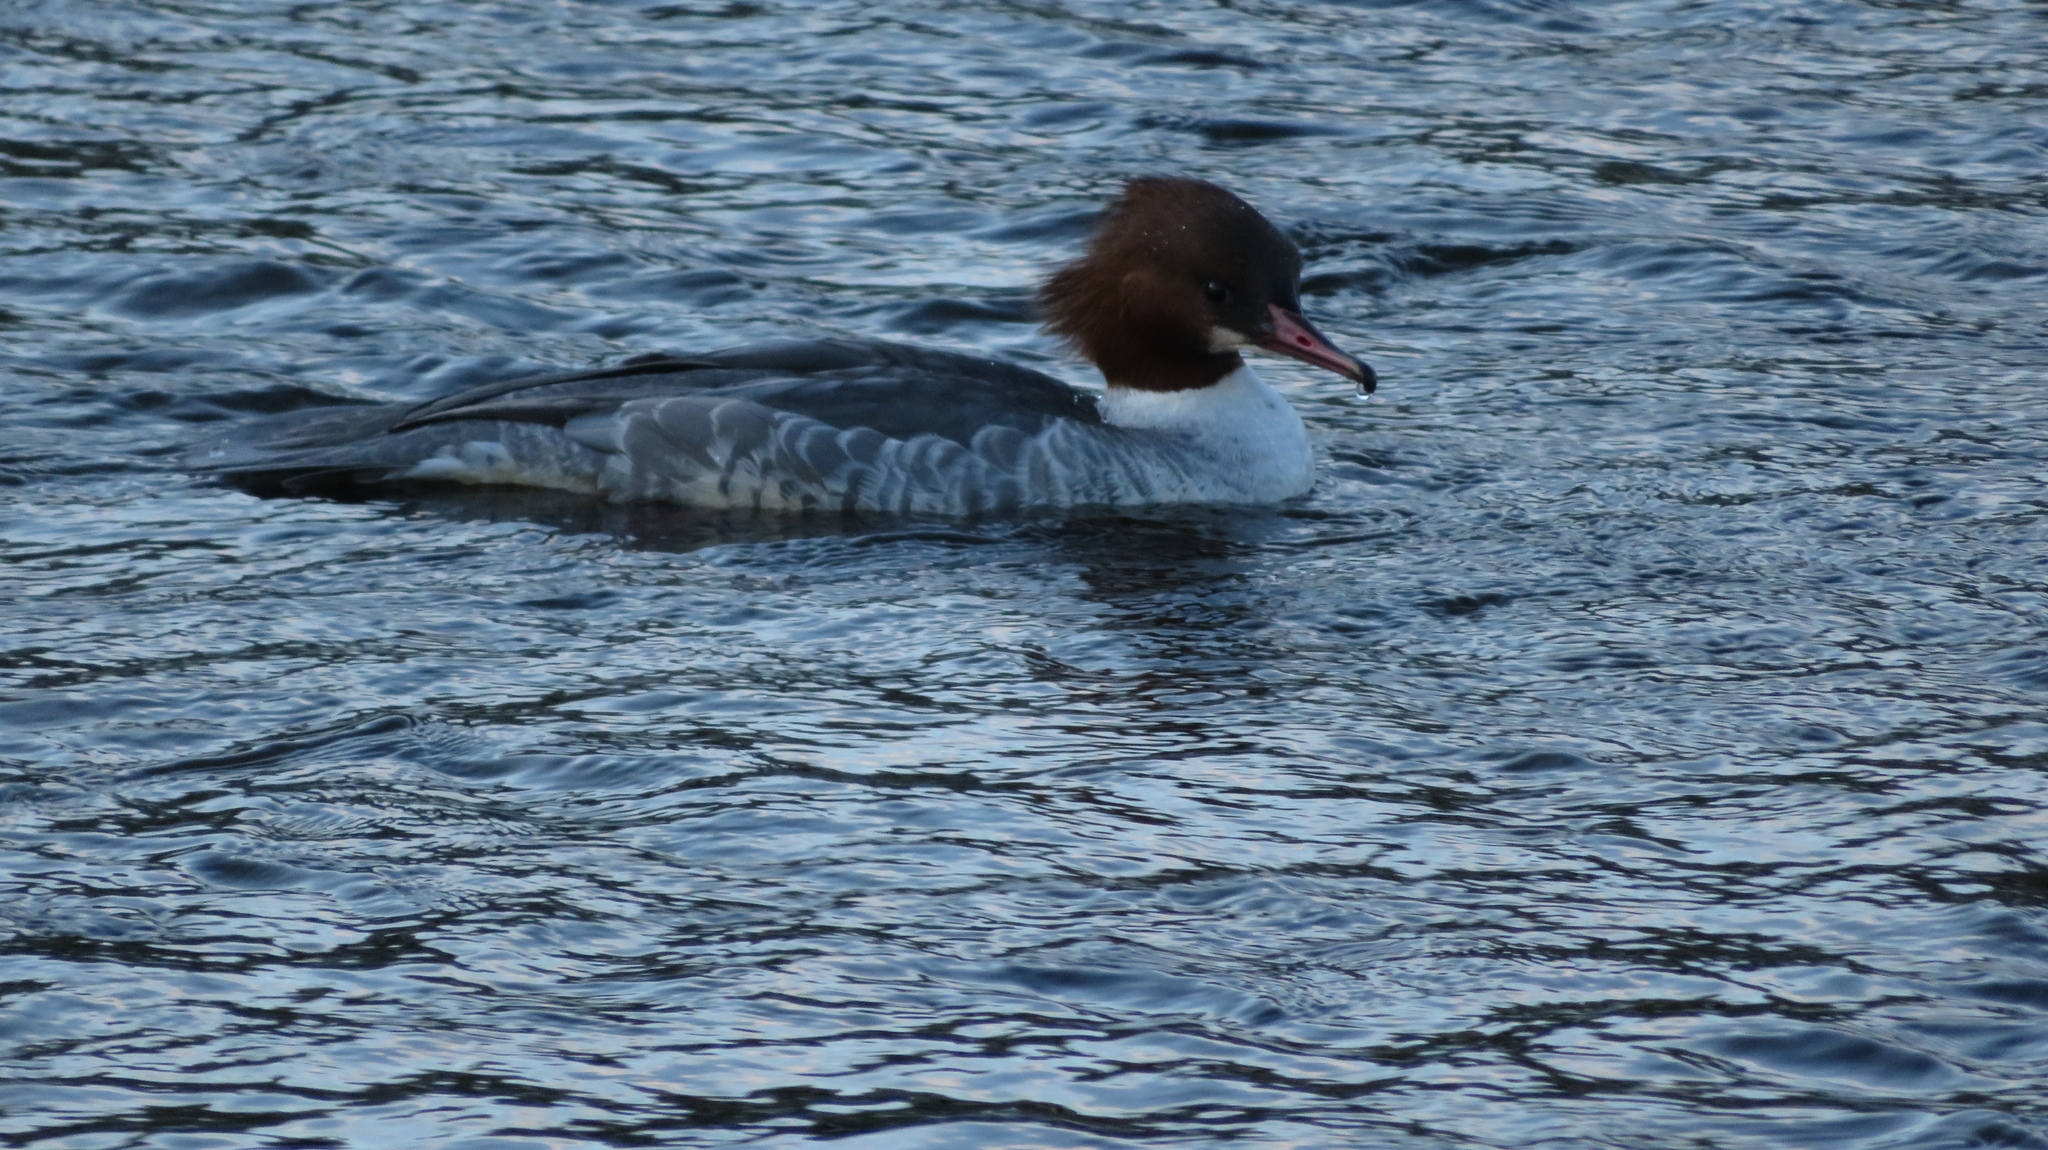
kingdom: Animalia
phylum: Chordata
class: Aves
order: Anseriformes
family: Anatidae
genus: Mergus
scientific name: Mergus merganser
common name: Common merganser
